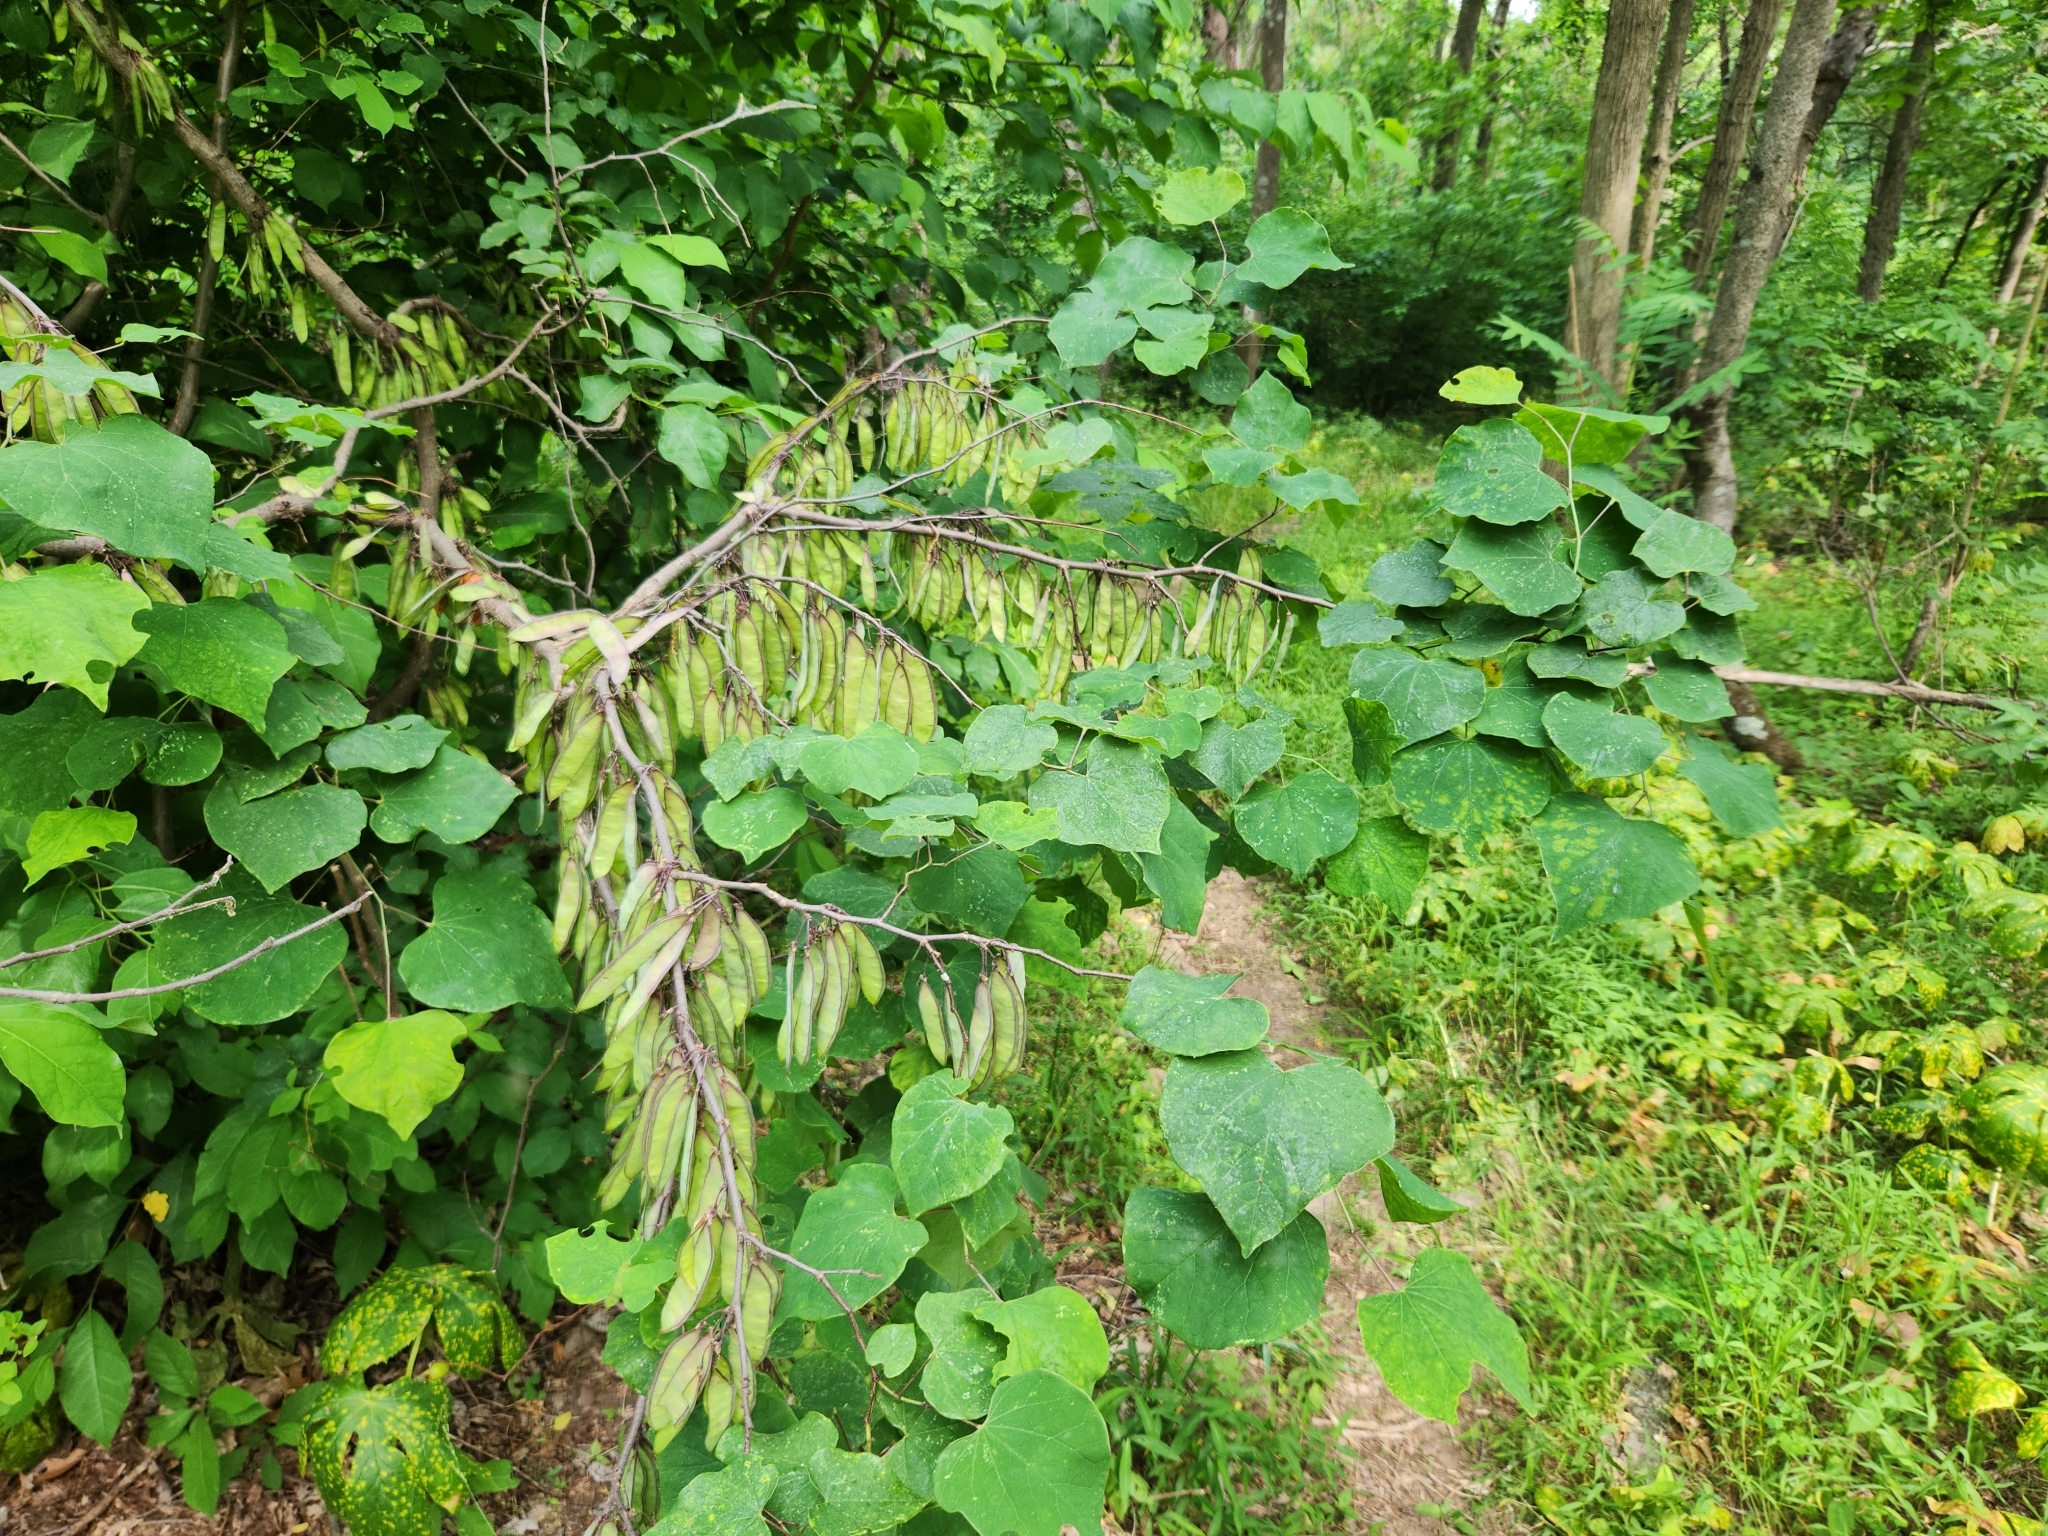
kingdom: Plantae
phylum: Tracheophyta
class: Magnoliopsida
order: Fabales
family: Fabaceae
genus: Cercis
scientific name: Cercis canadensis
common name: Eastern redbud
